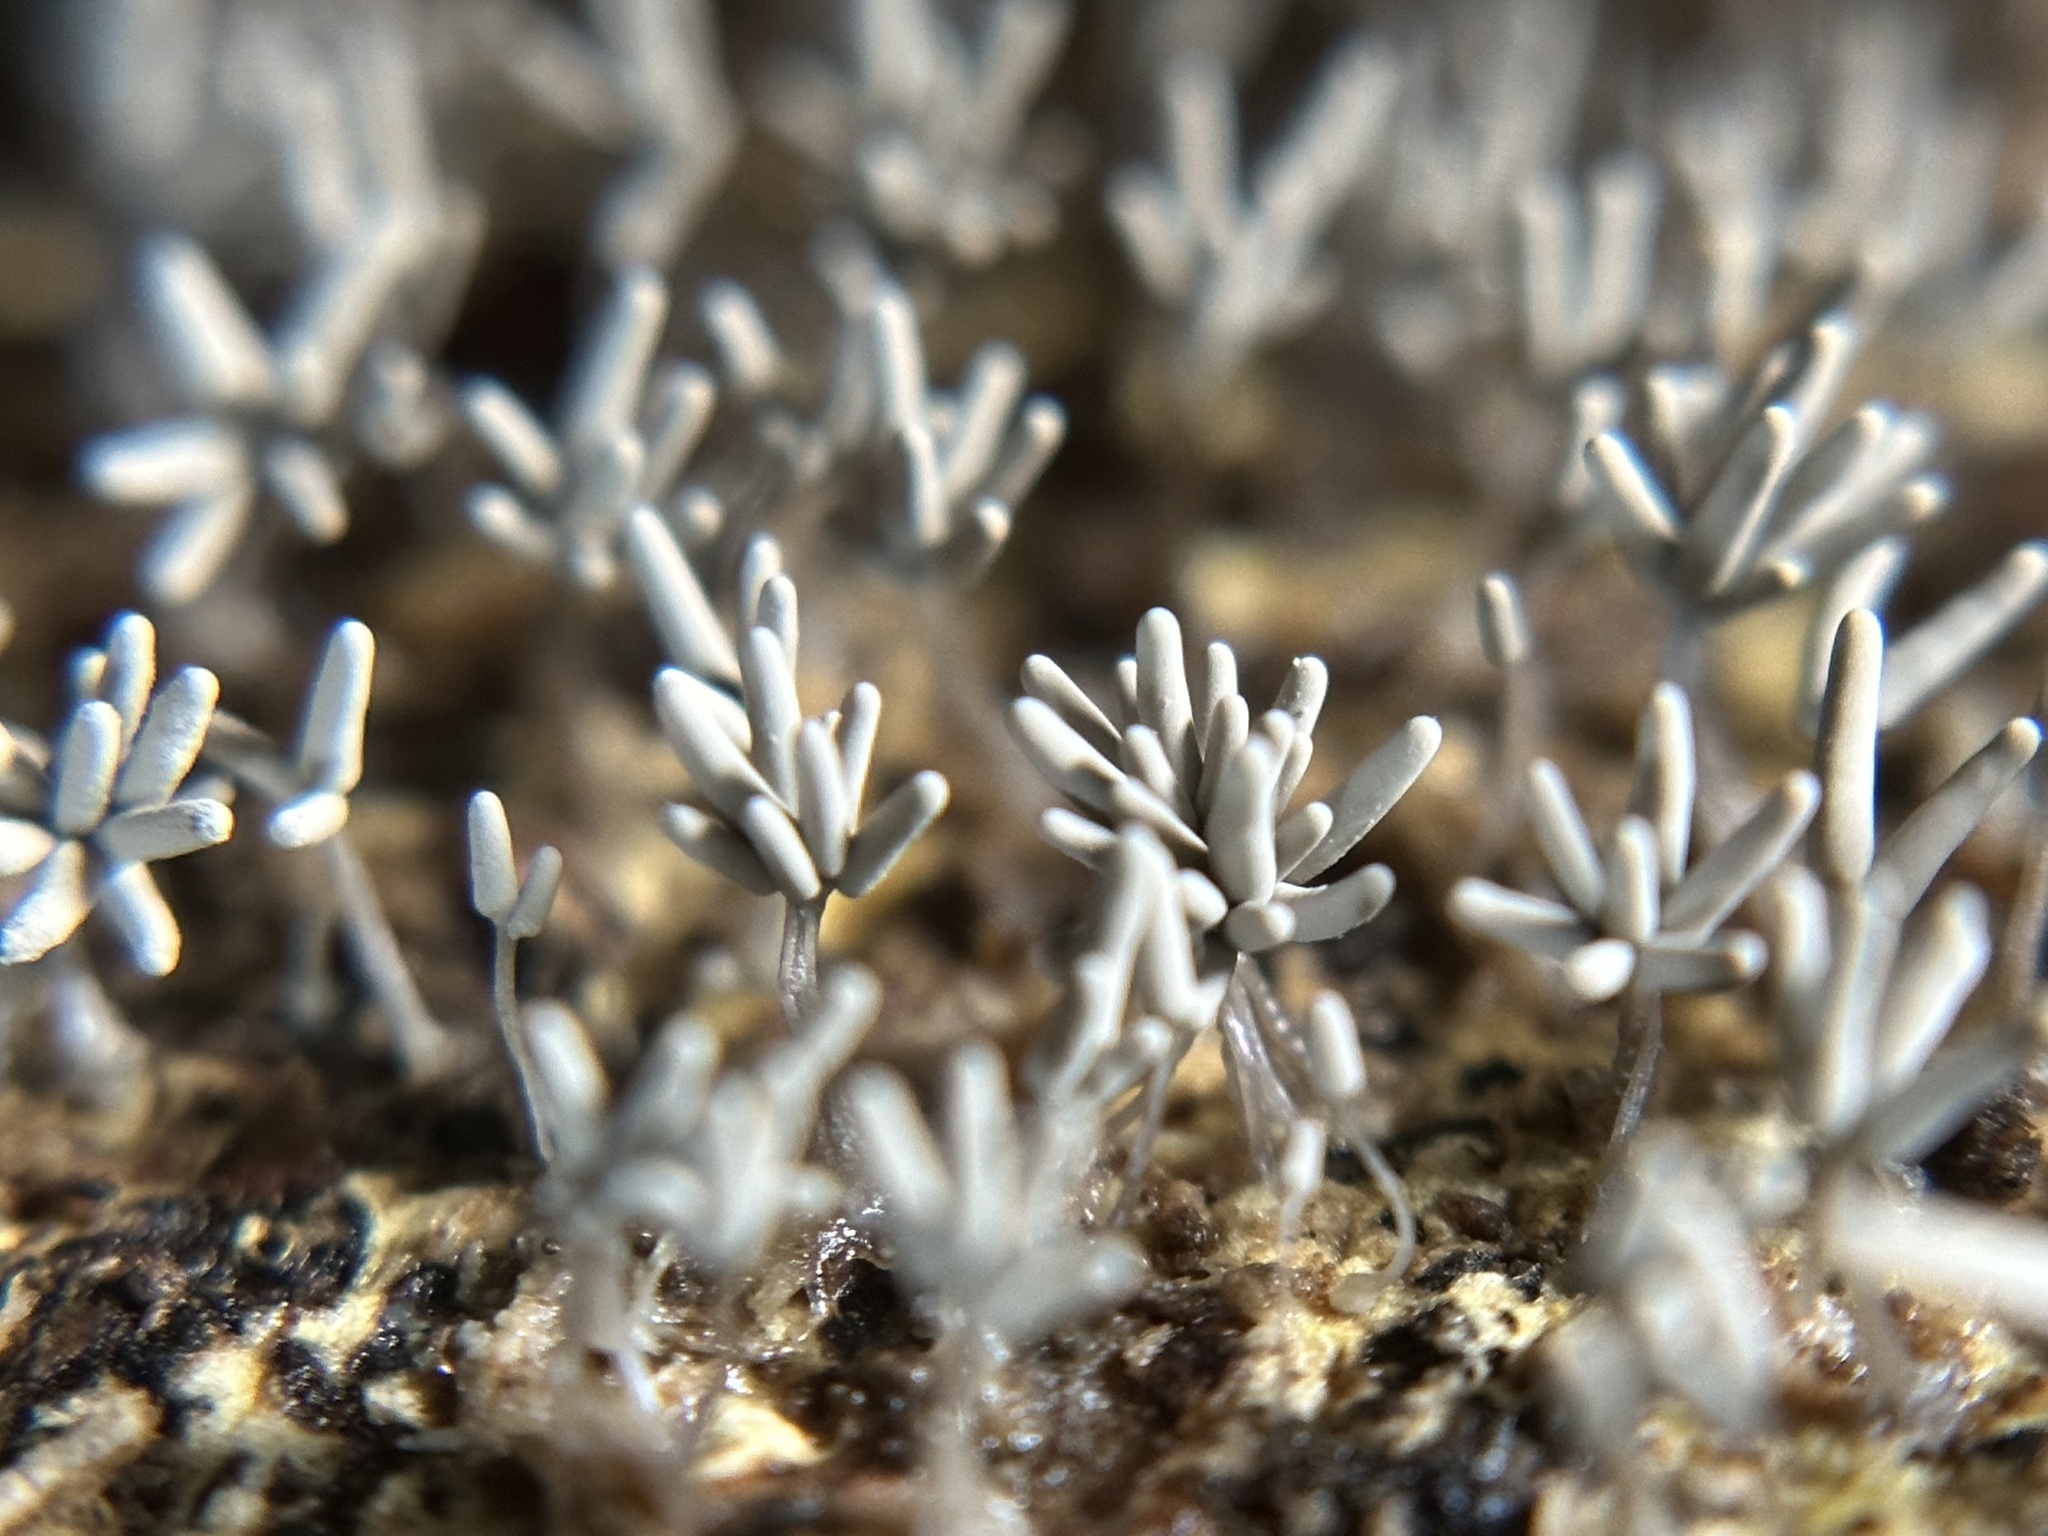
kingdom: Protozoa
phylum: Mycetozoa
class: Myxomycetes
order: Trichiales
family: Arcyriaceae
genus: Arcyria
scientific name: Arcyria cinerea
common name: White carnival candy slime mold
